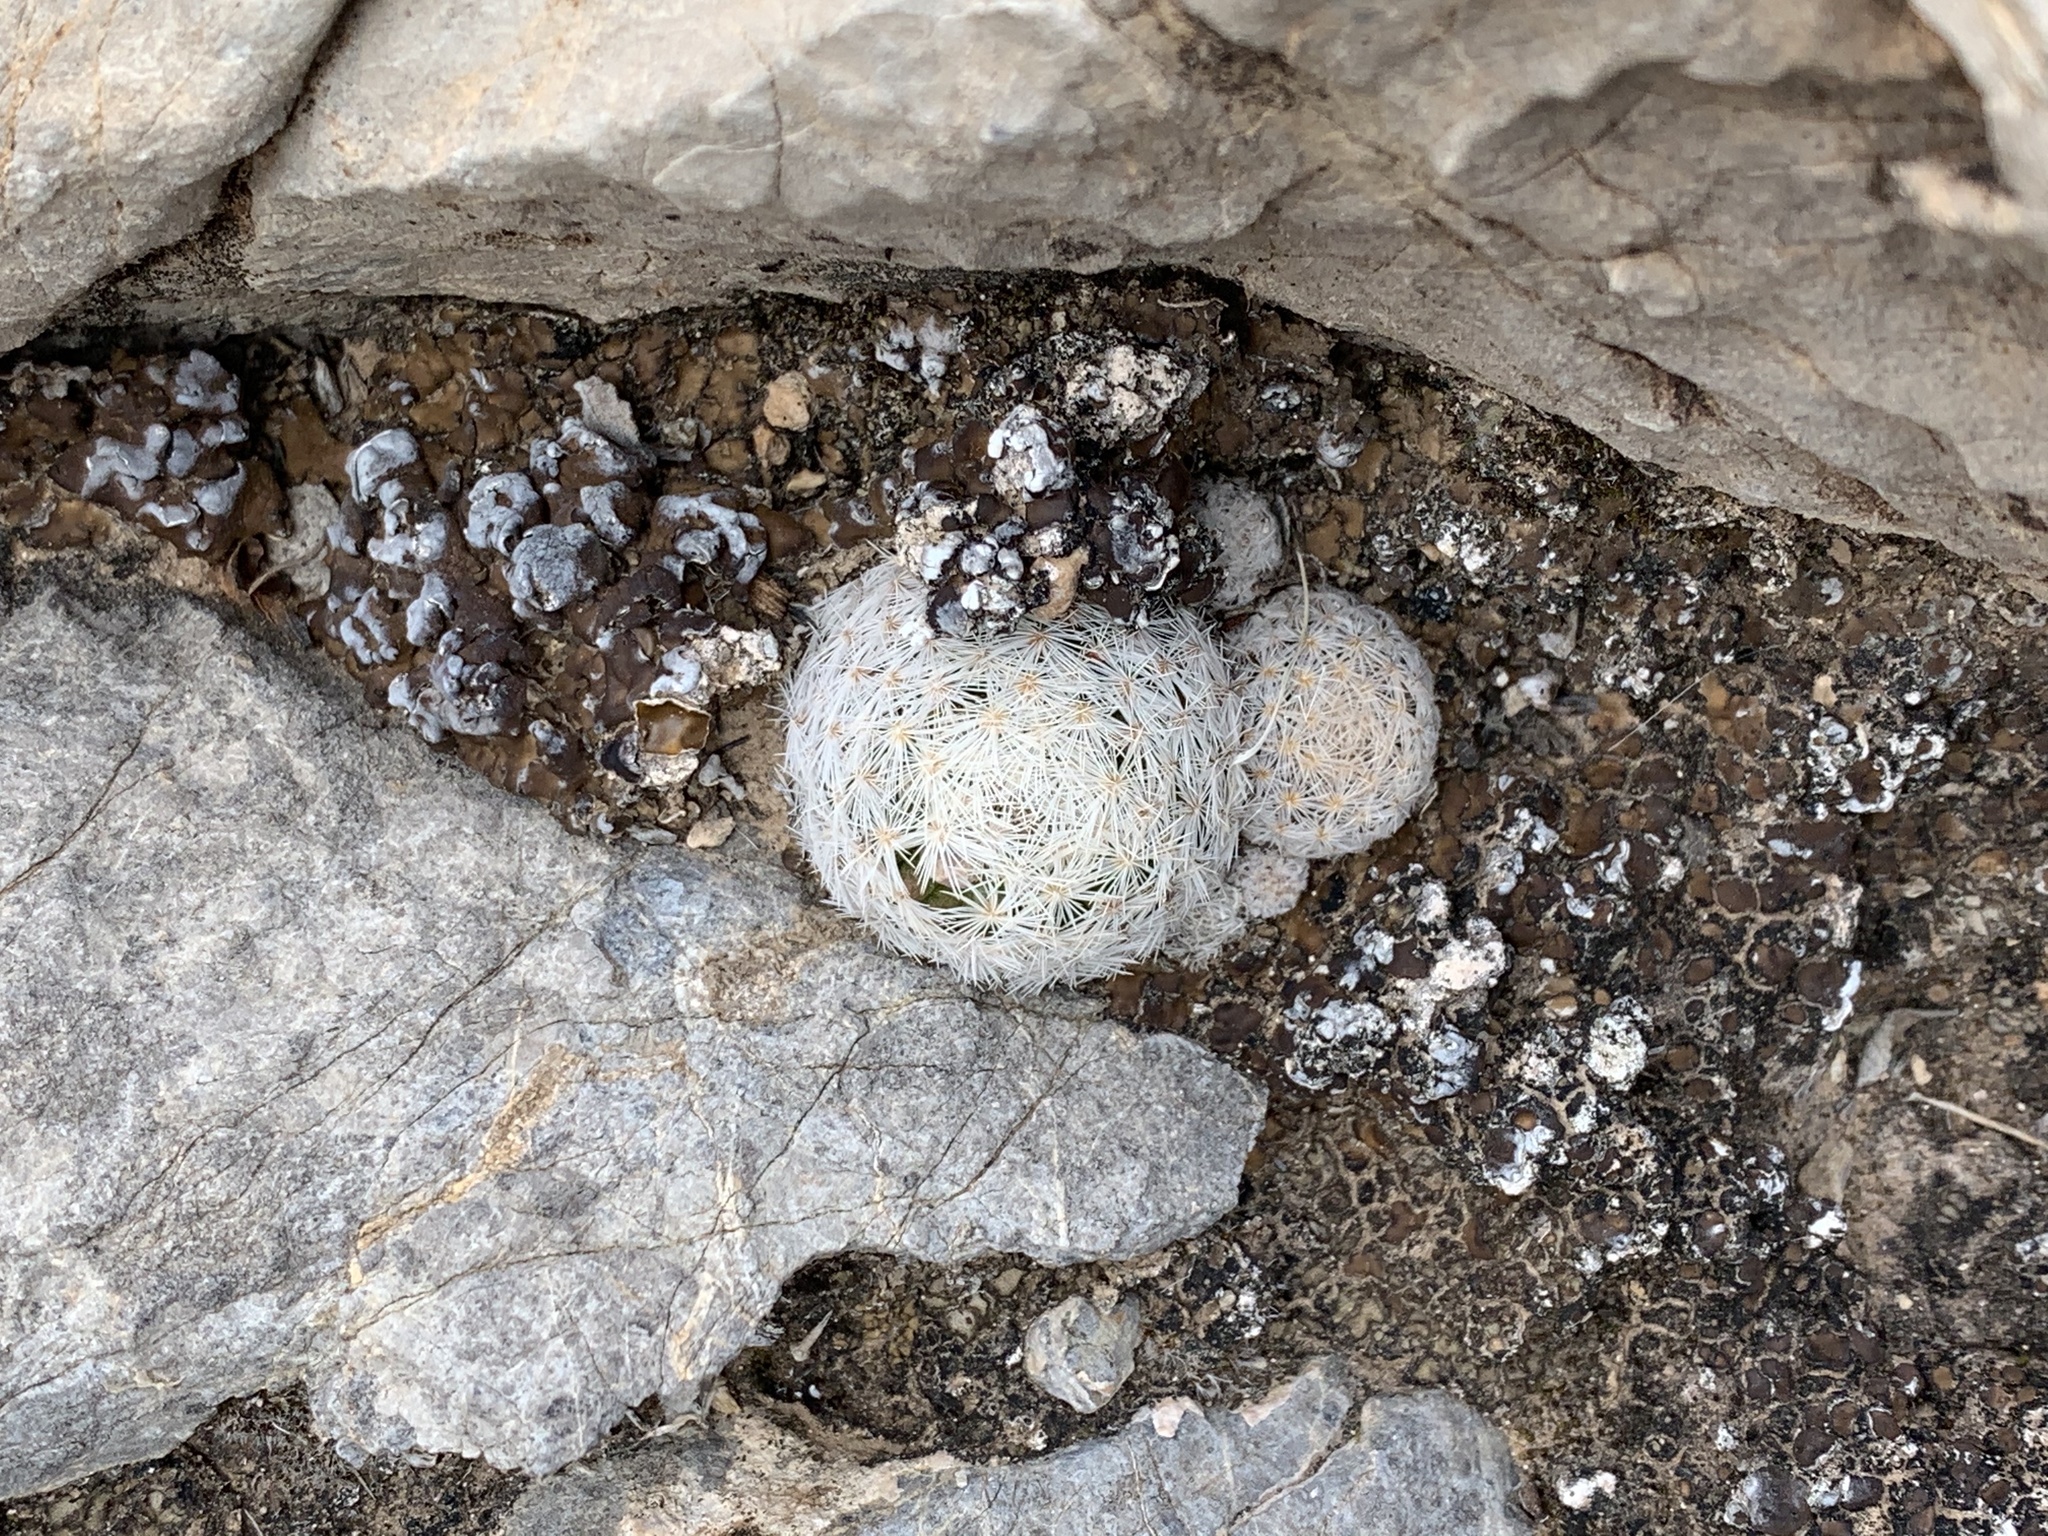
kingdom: Plantae
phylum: Tracheophyta
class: Magnoliopsida
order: Caryophyllales
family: Cactaceae
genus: Mammillaria
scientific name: Mammillaria lasiacantha
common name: Lace-spine nipple cactus
